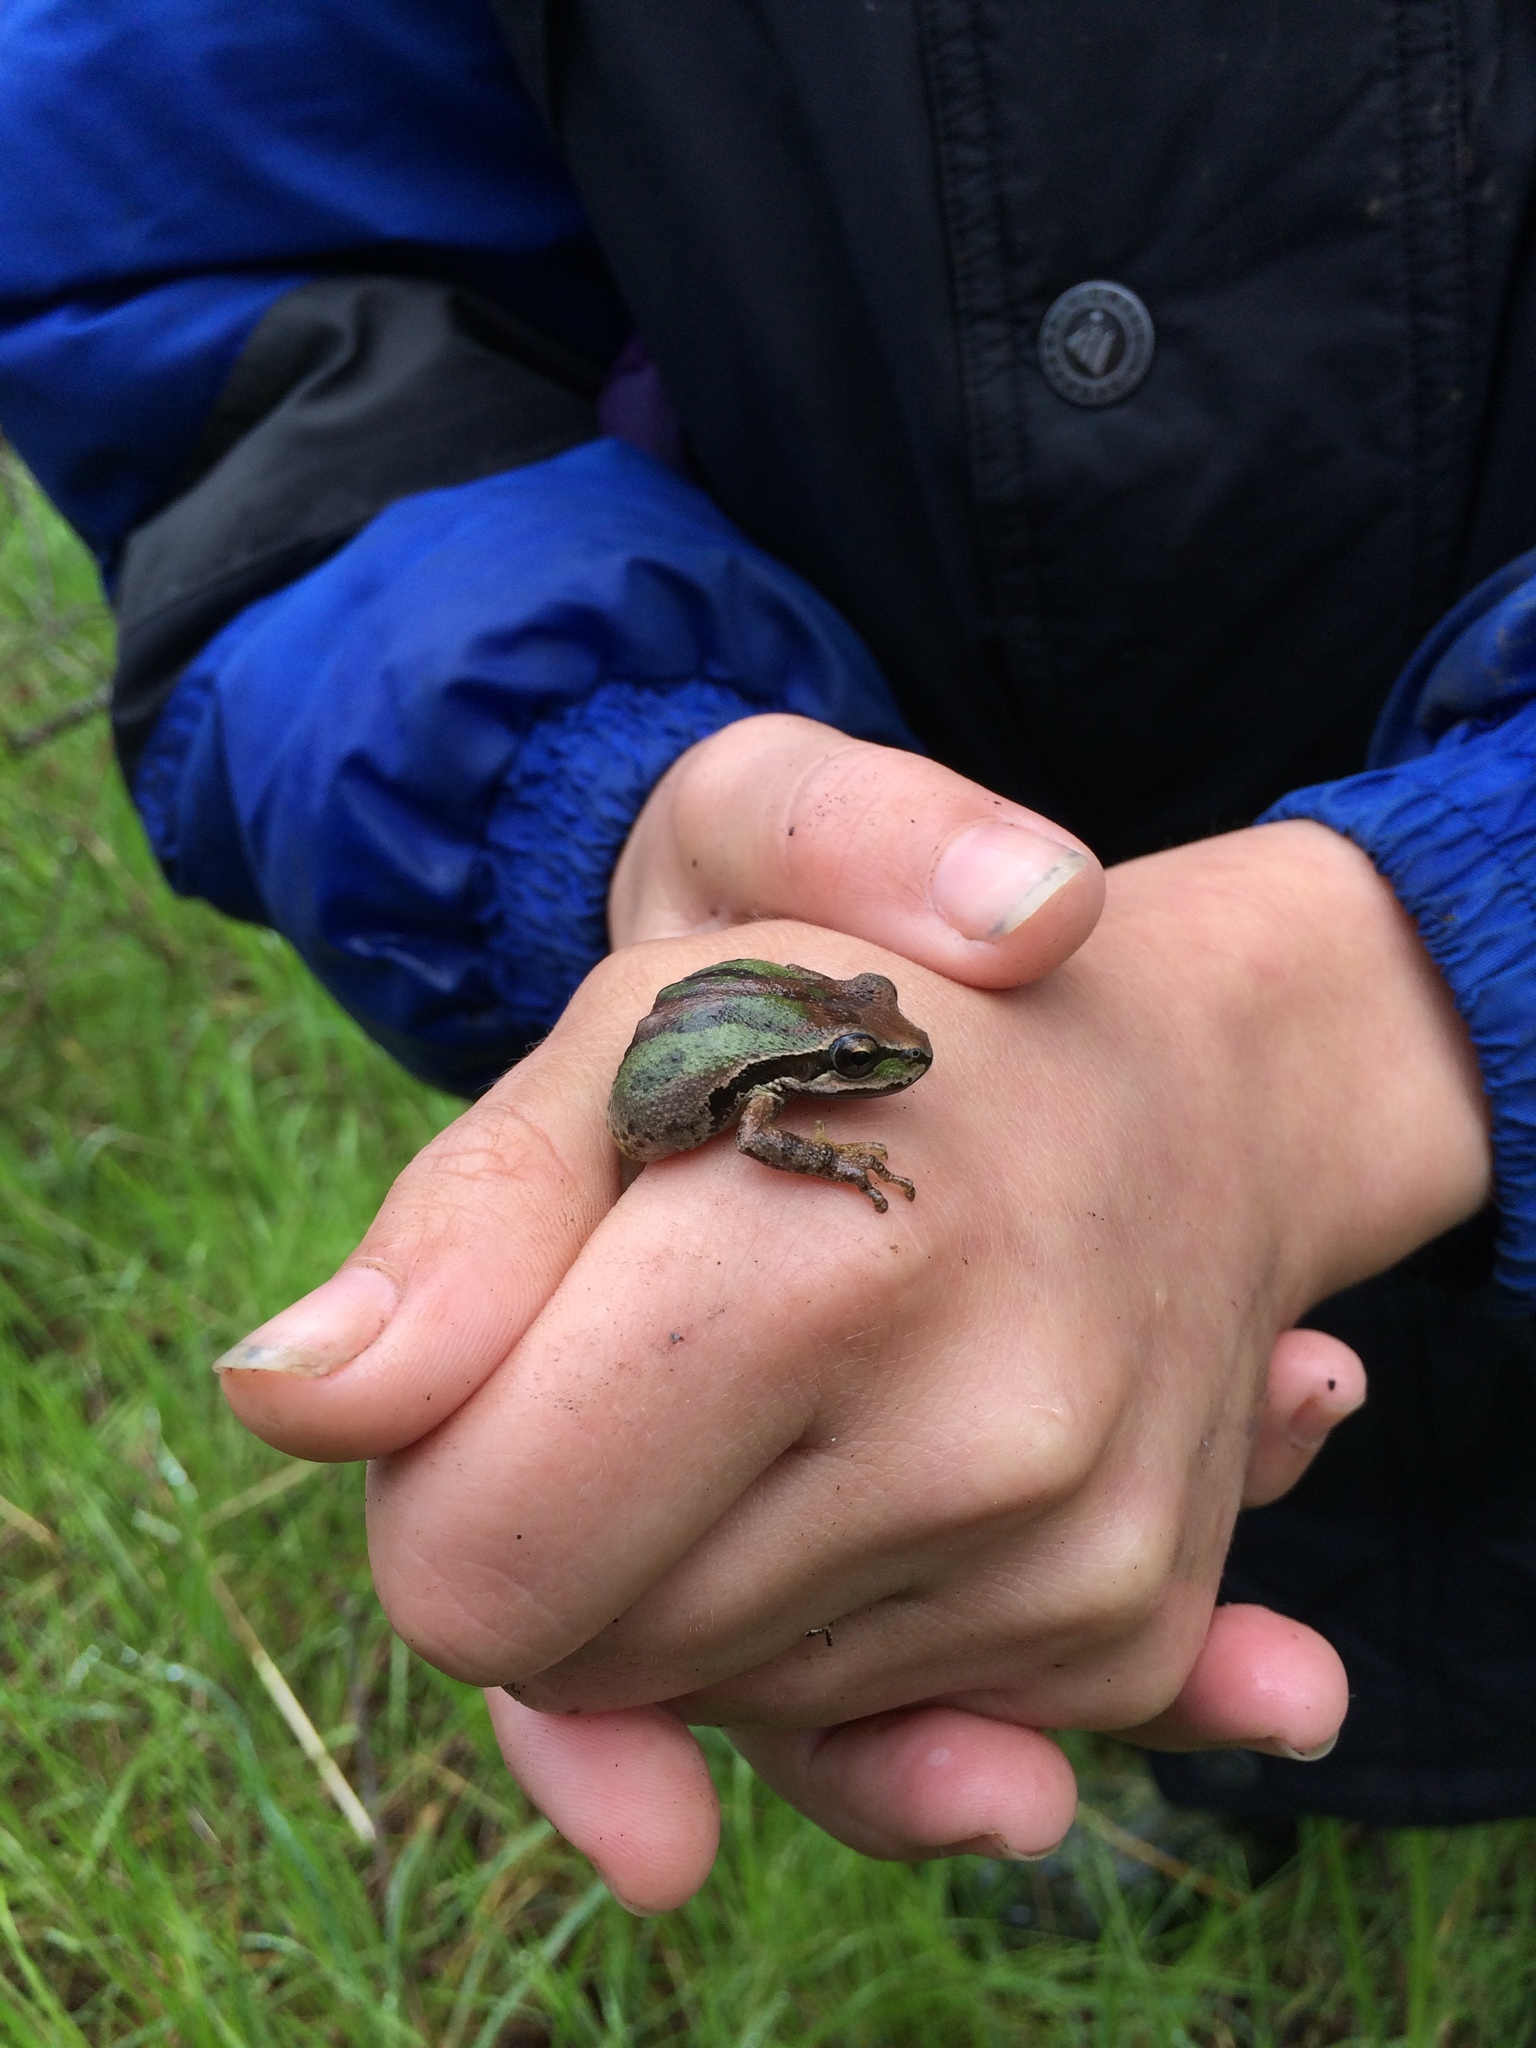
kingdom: Animalia
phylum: Chordata
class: Amphibia
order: Anura
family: Hylidae
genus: Pseudacris
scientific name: Pseudacris regilla
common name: Pacific chorus frog
